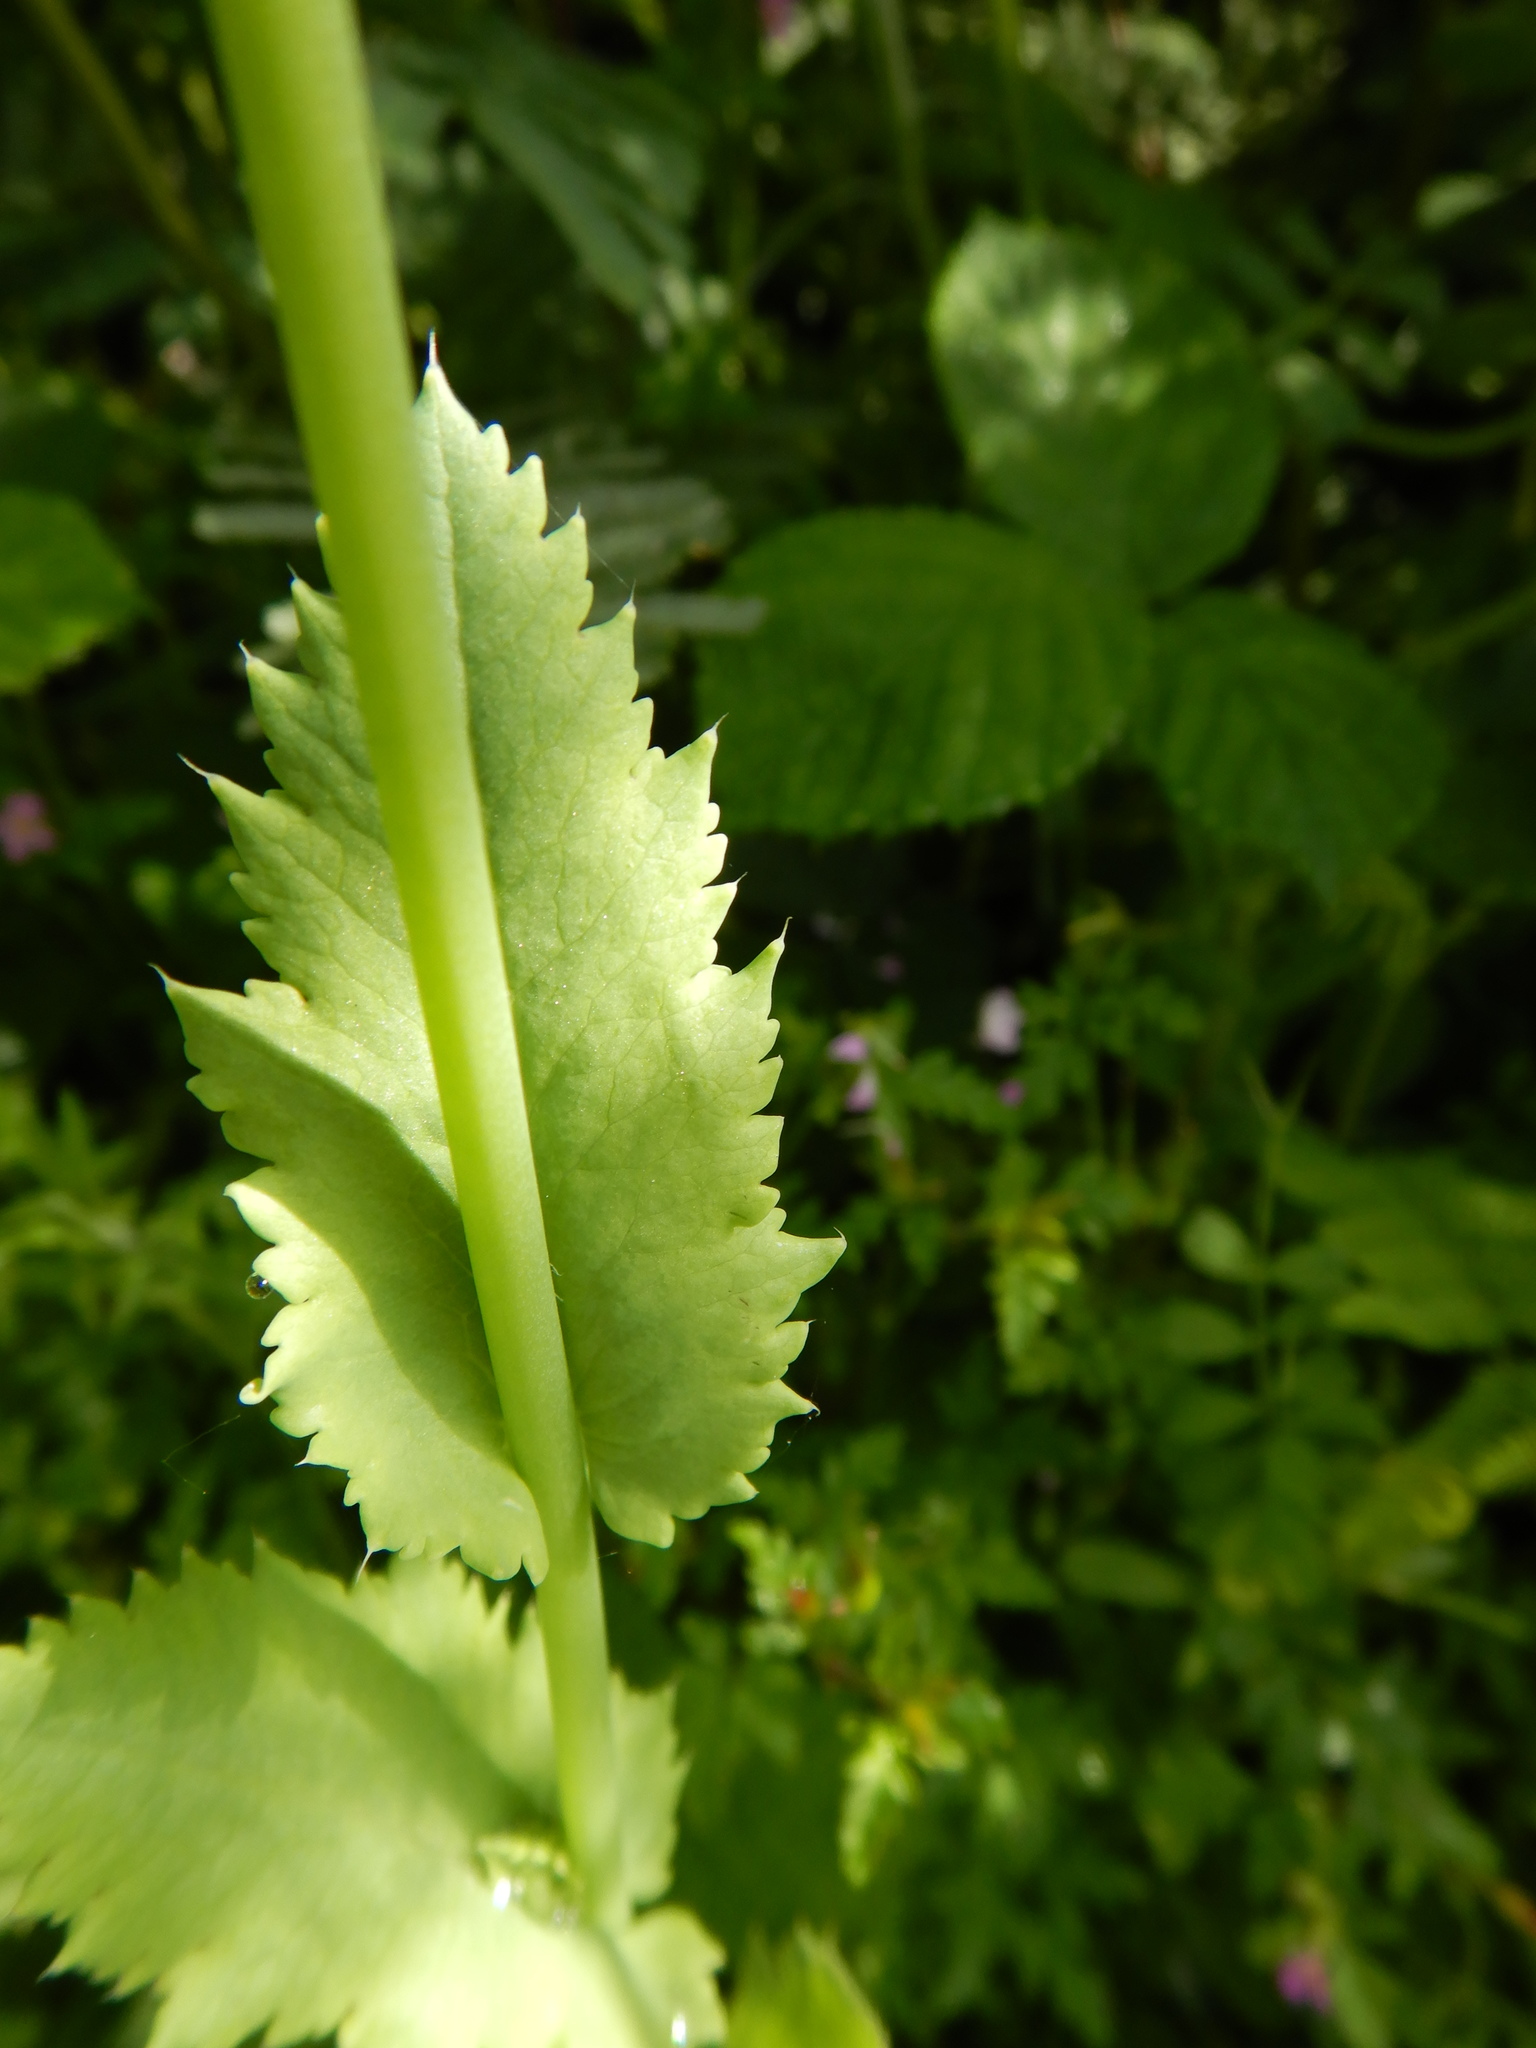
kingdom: Plantae
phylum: Tracheophyta
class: Magnoliopsida
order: Ranunculales
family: Papaveraceae
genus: Papaver
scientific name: Papaver somniferum
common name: Opium poppy
